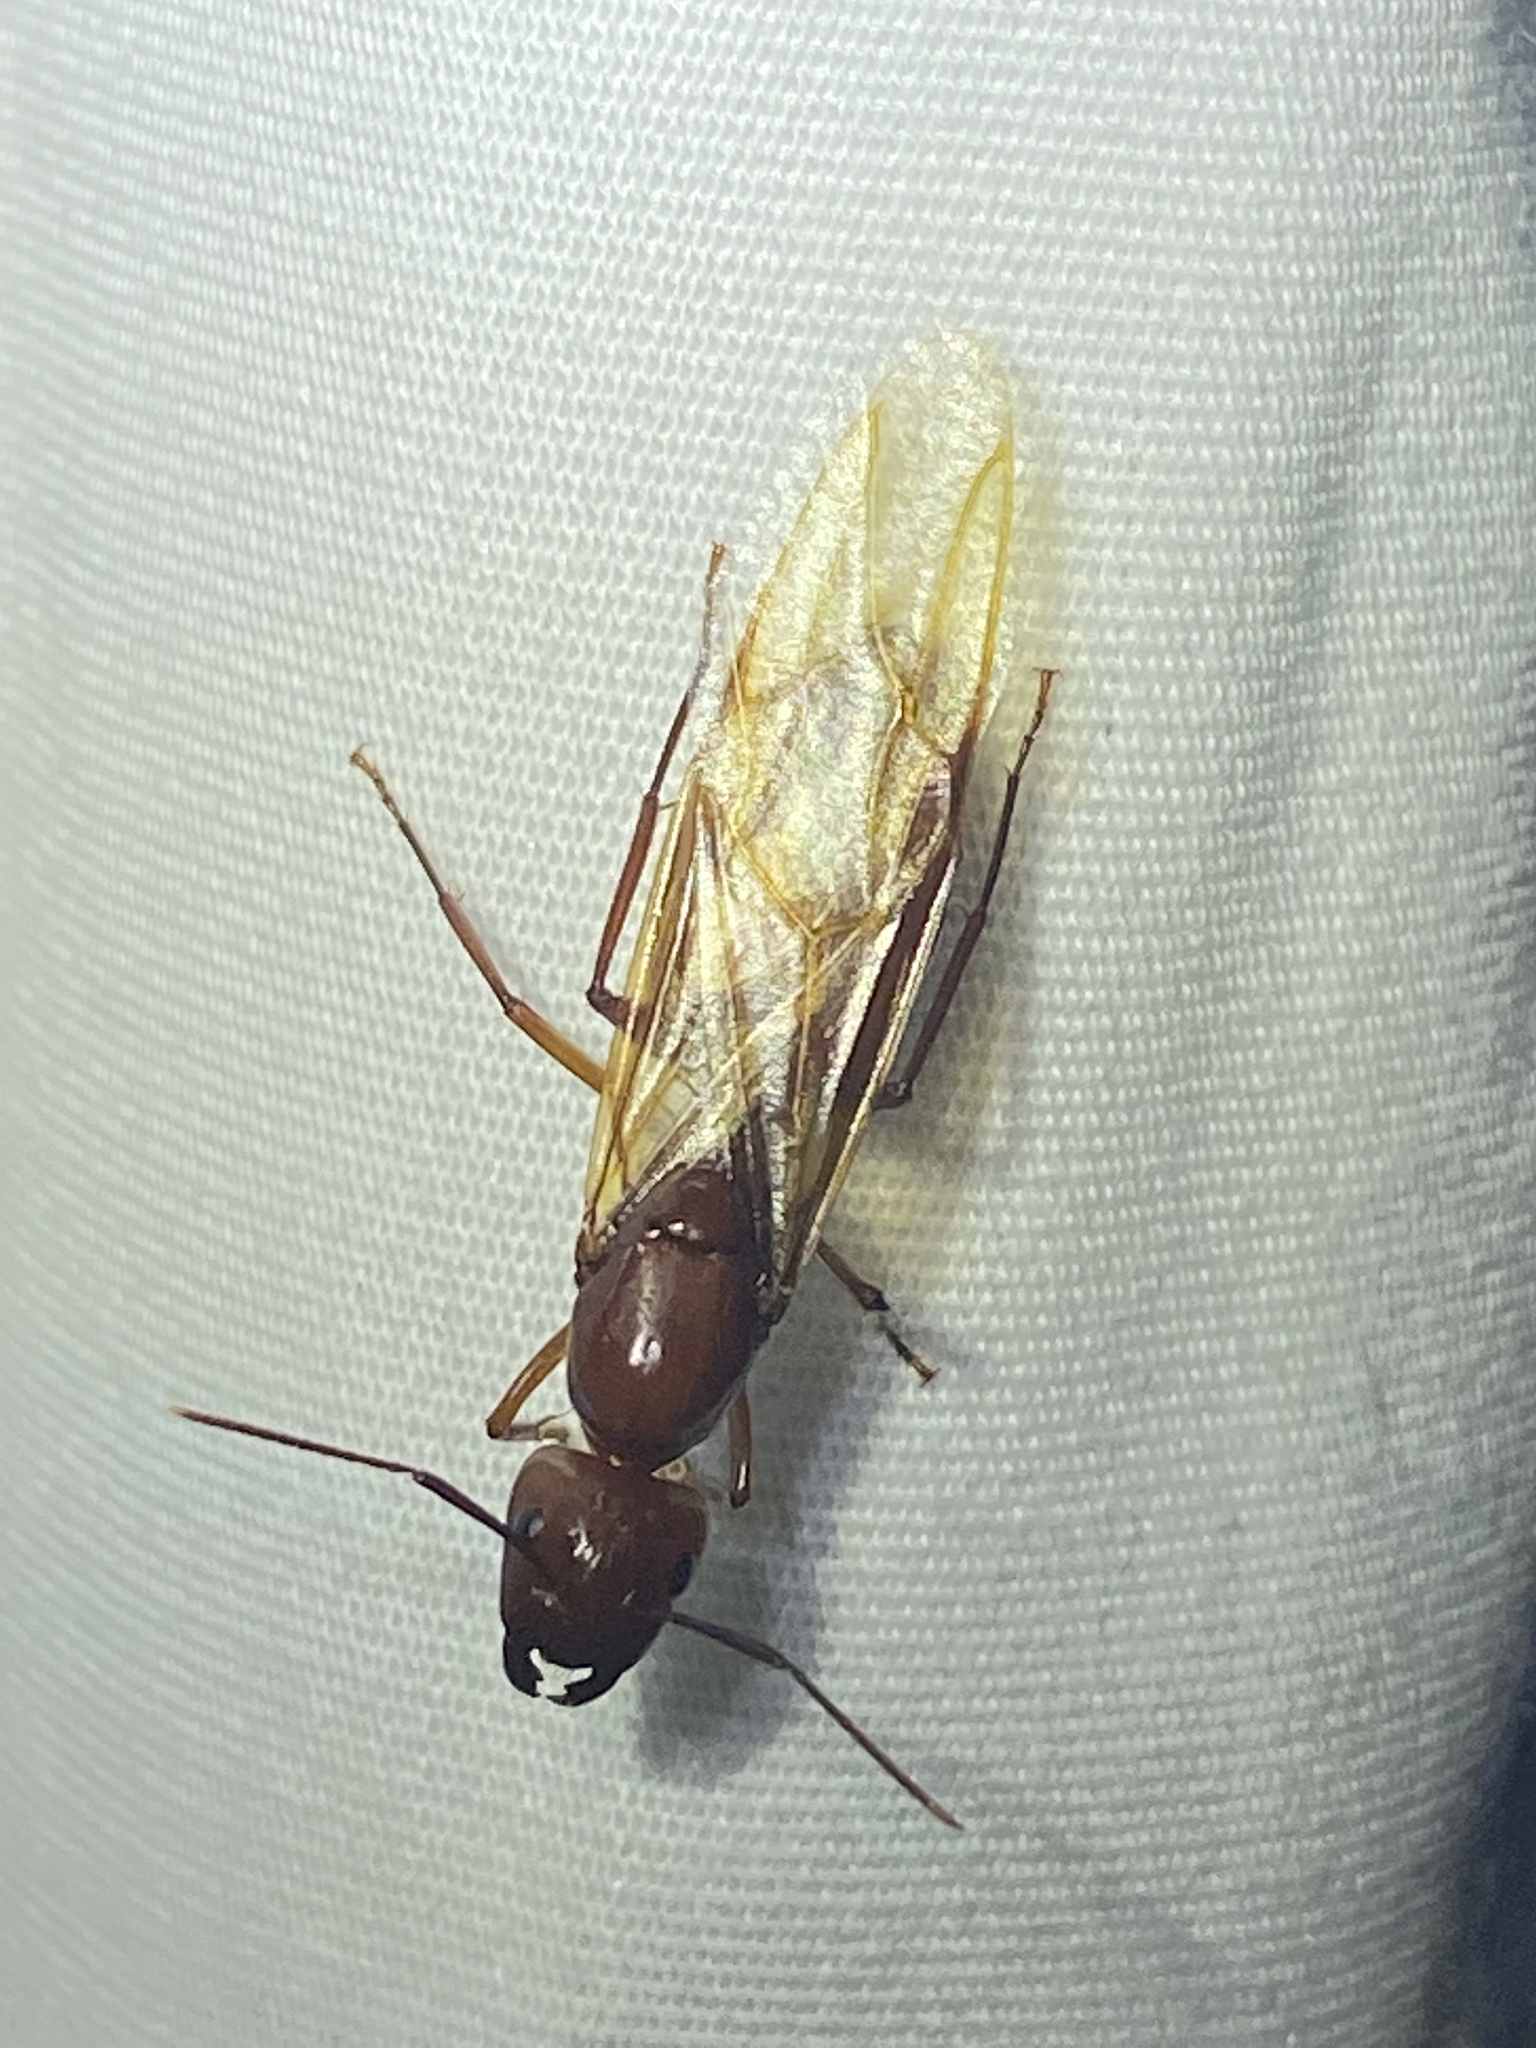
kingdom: Animalia
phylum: Arthropoda
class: Insecta
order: Hymenoptera
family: Formicidae
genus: Camponotus
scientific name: Camponotus castaneus
